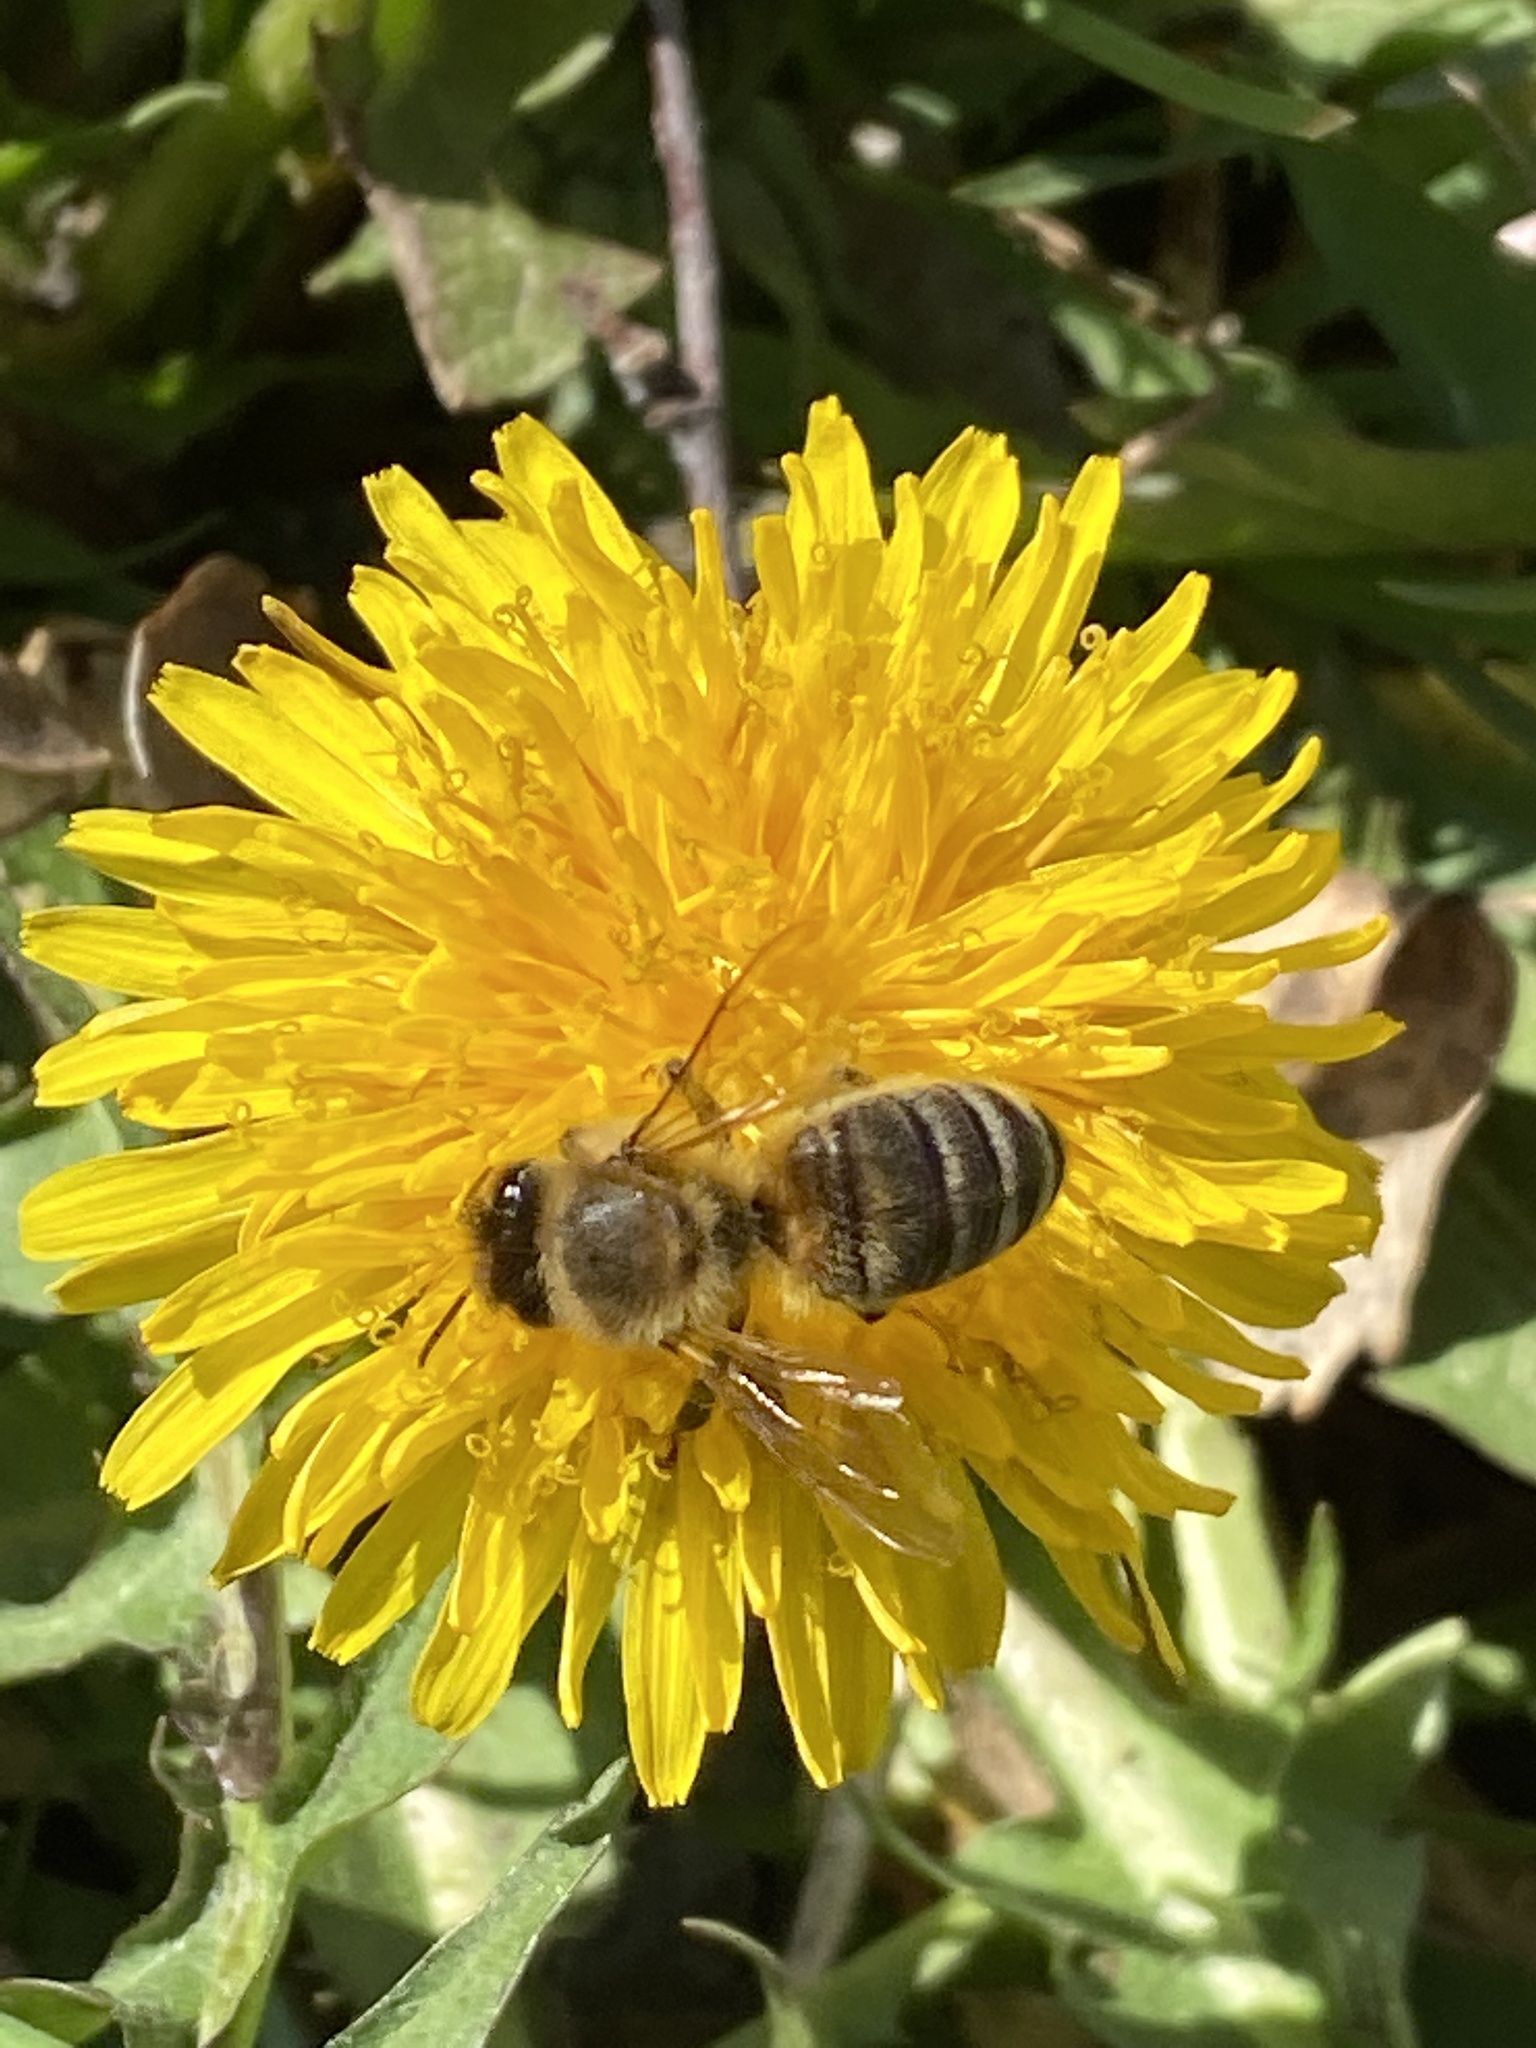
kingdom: Animalia
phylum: Arthropoda
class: Insecta
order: Hymenoptera
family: Apidae
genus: Apis
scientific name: Apis mellifera
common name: Honey bee
